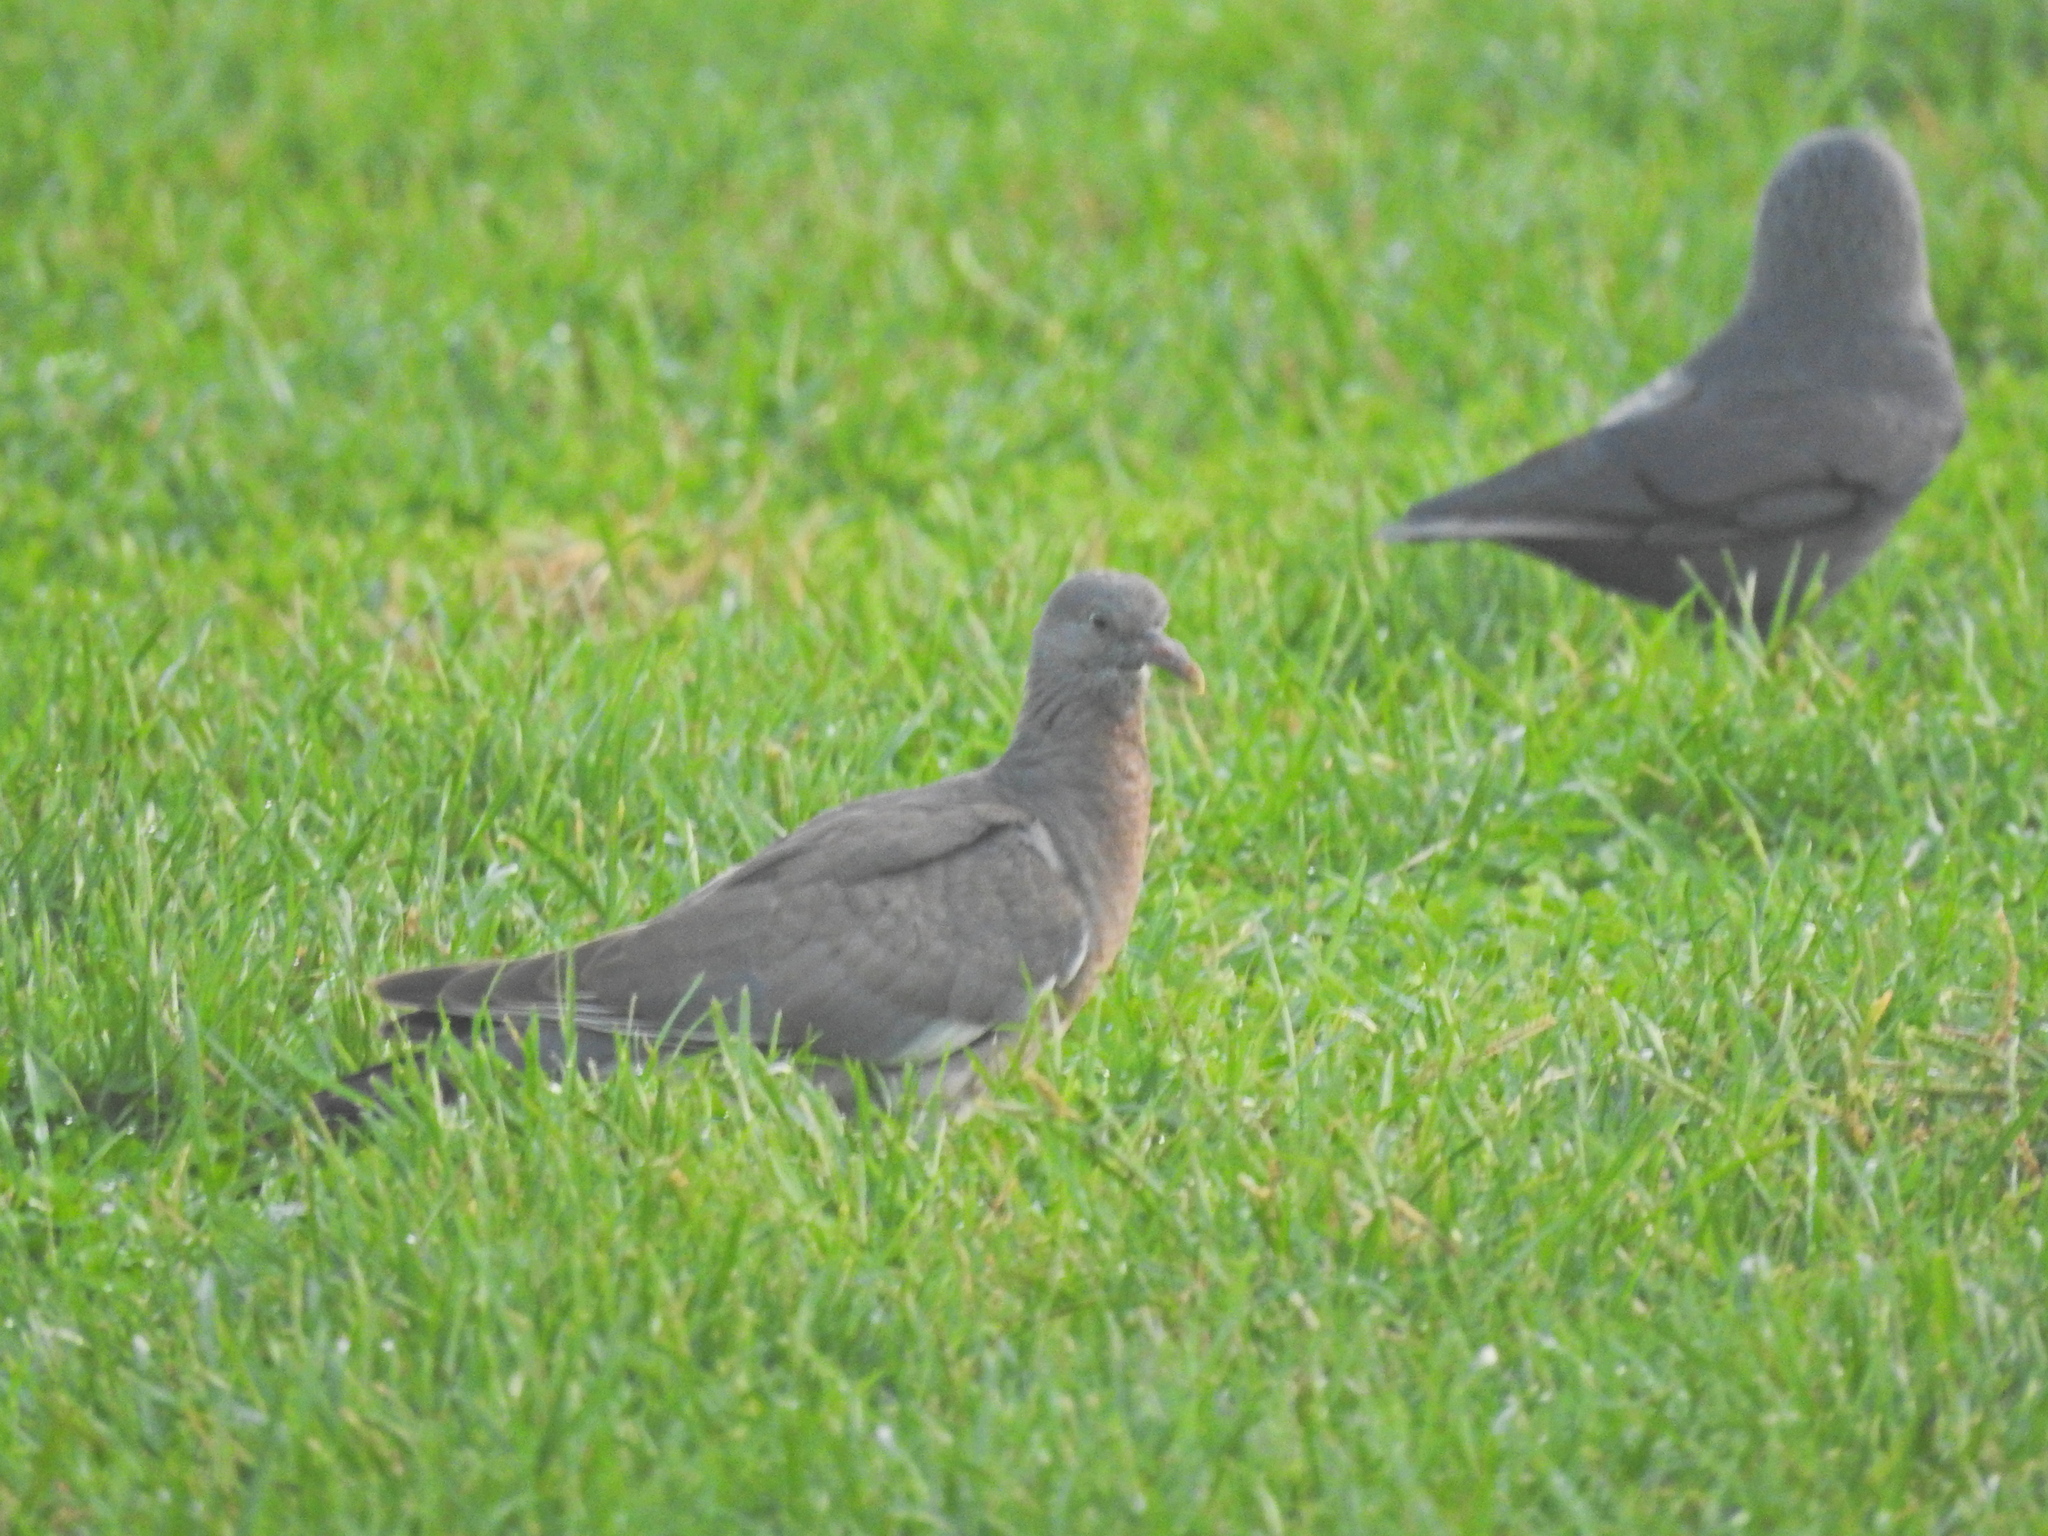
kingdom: Animalia
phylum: Chordata
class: Aves
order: Columbiformes
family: Columbidae
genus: Columba
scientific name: Columba palumbus
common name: Common wood pigeon
